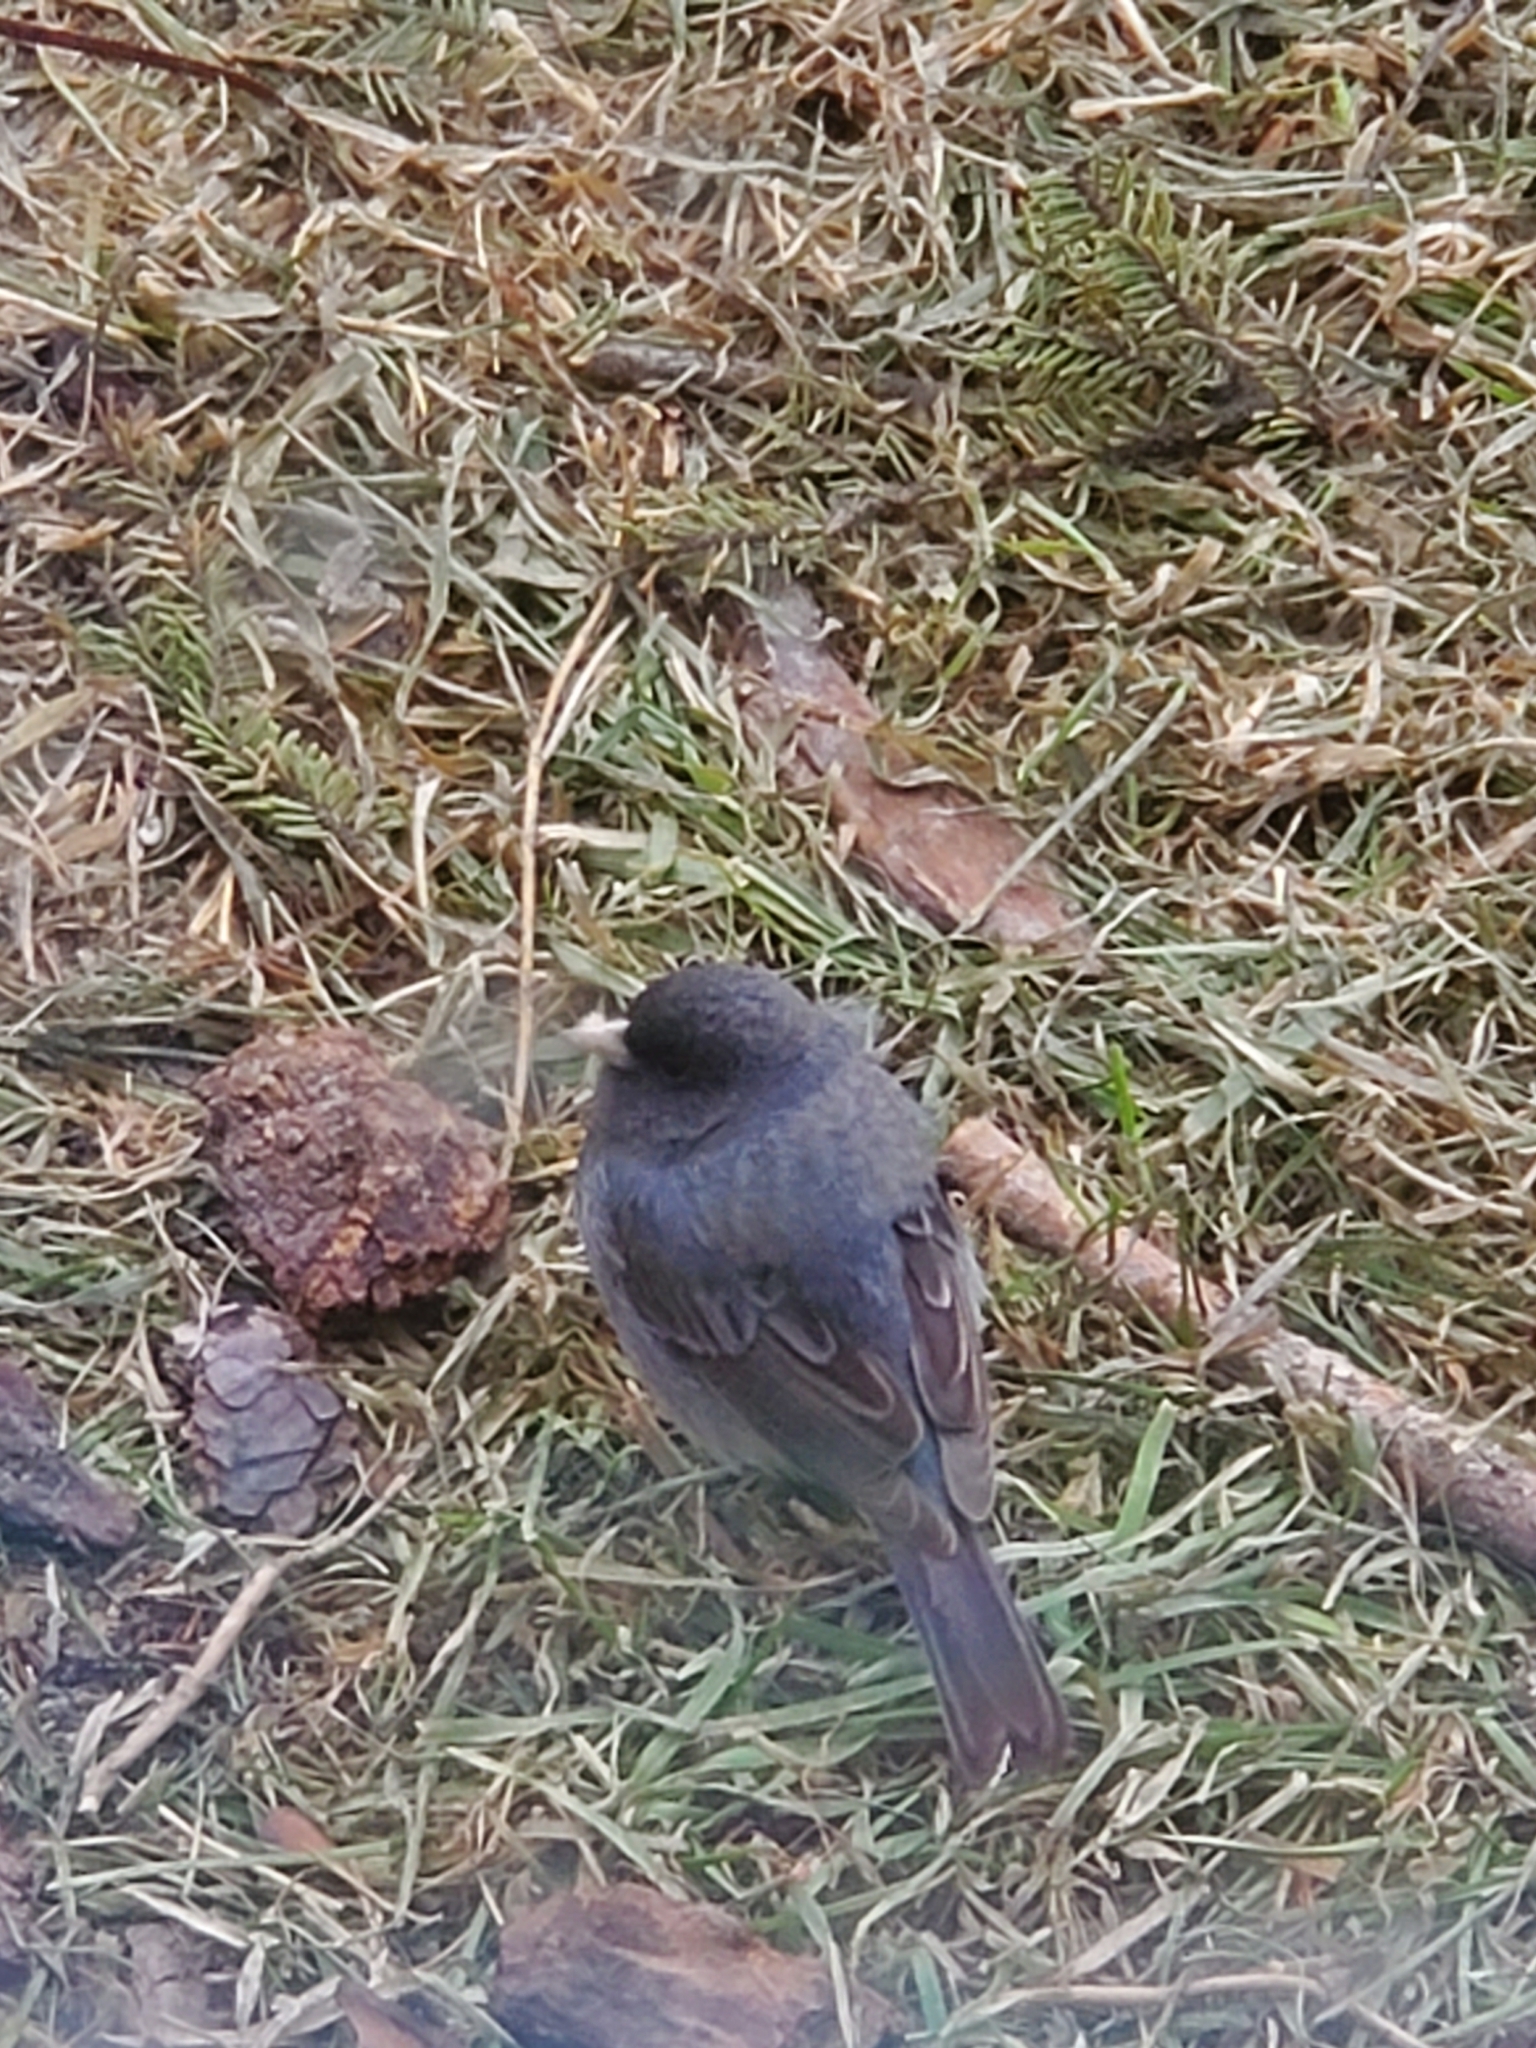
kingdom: Animalia
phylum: Chordata
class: Aves
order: Passeriformes
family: Passerellidae
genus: Junco
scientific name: Junco hyemalis
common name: Dark-eyed junco
